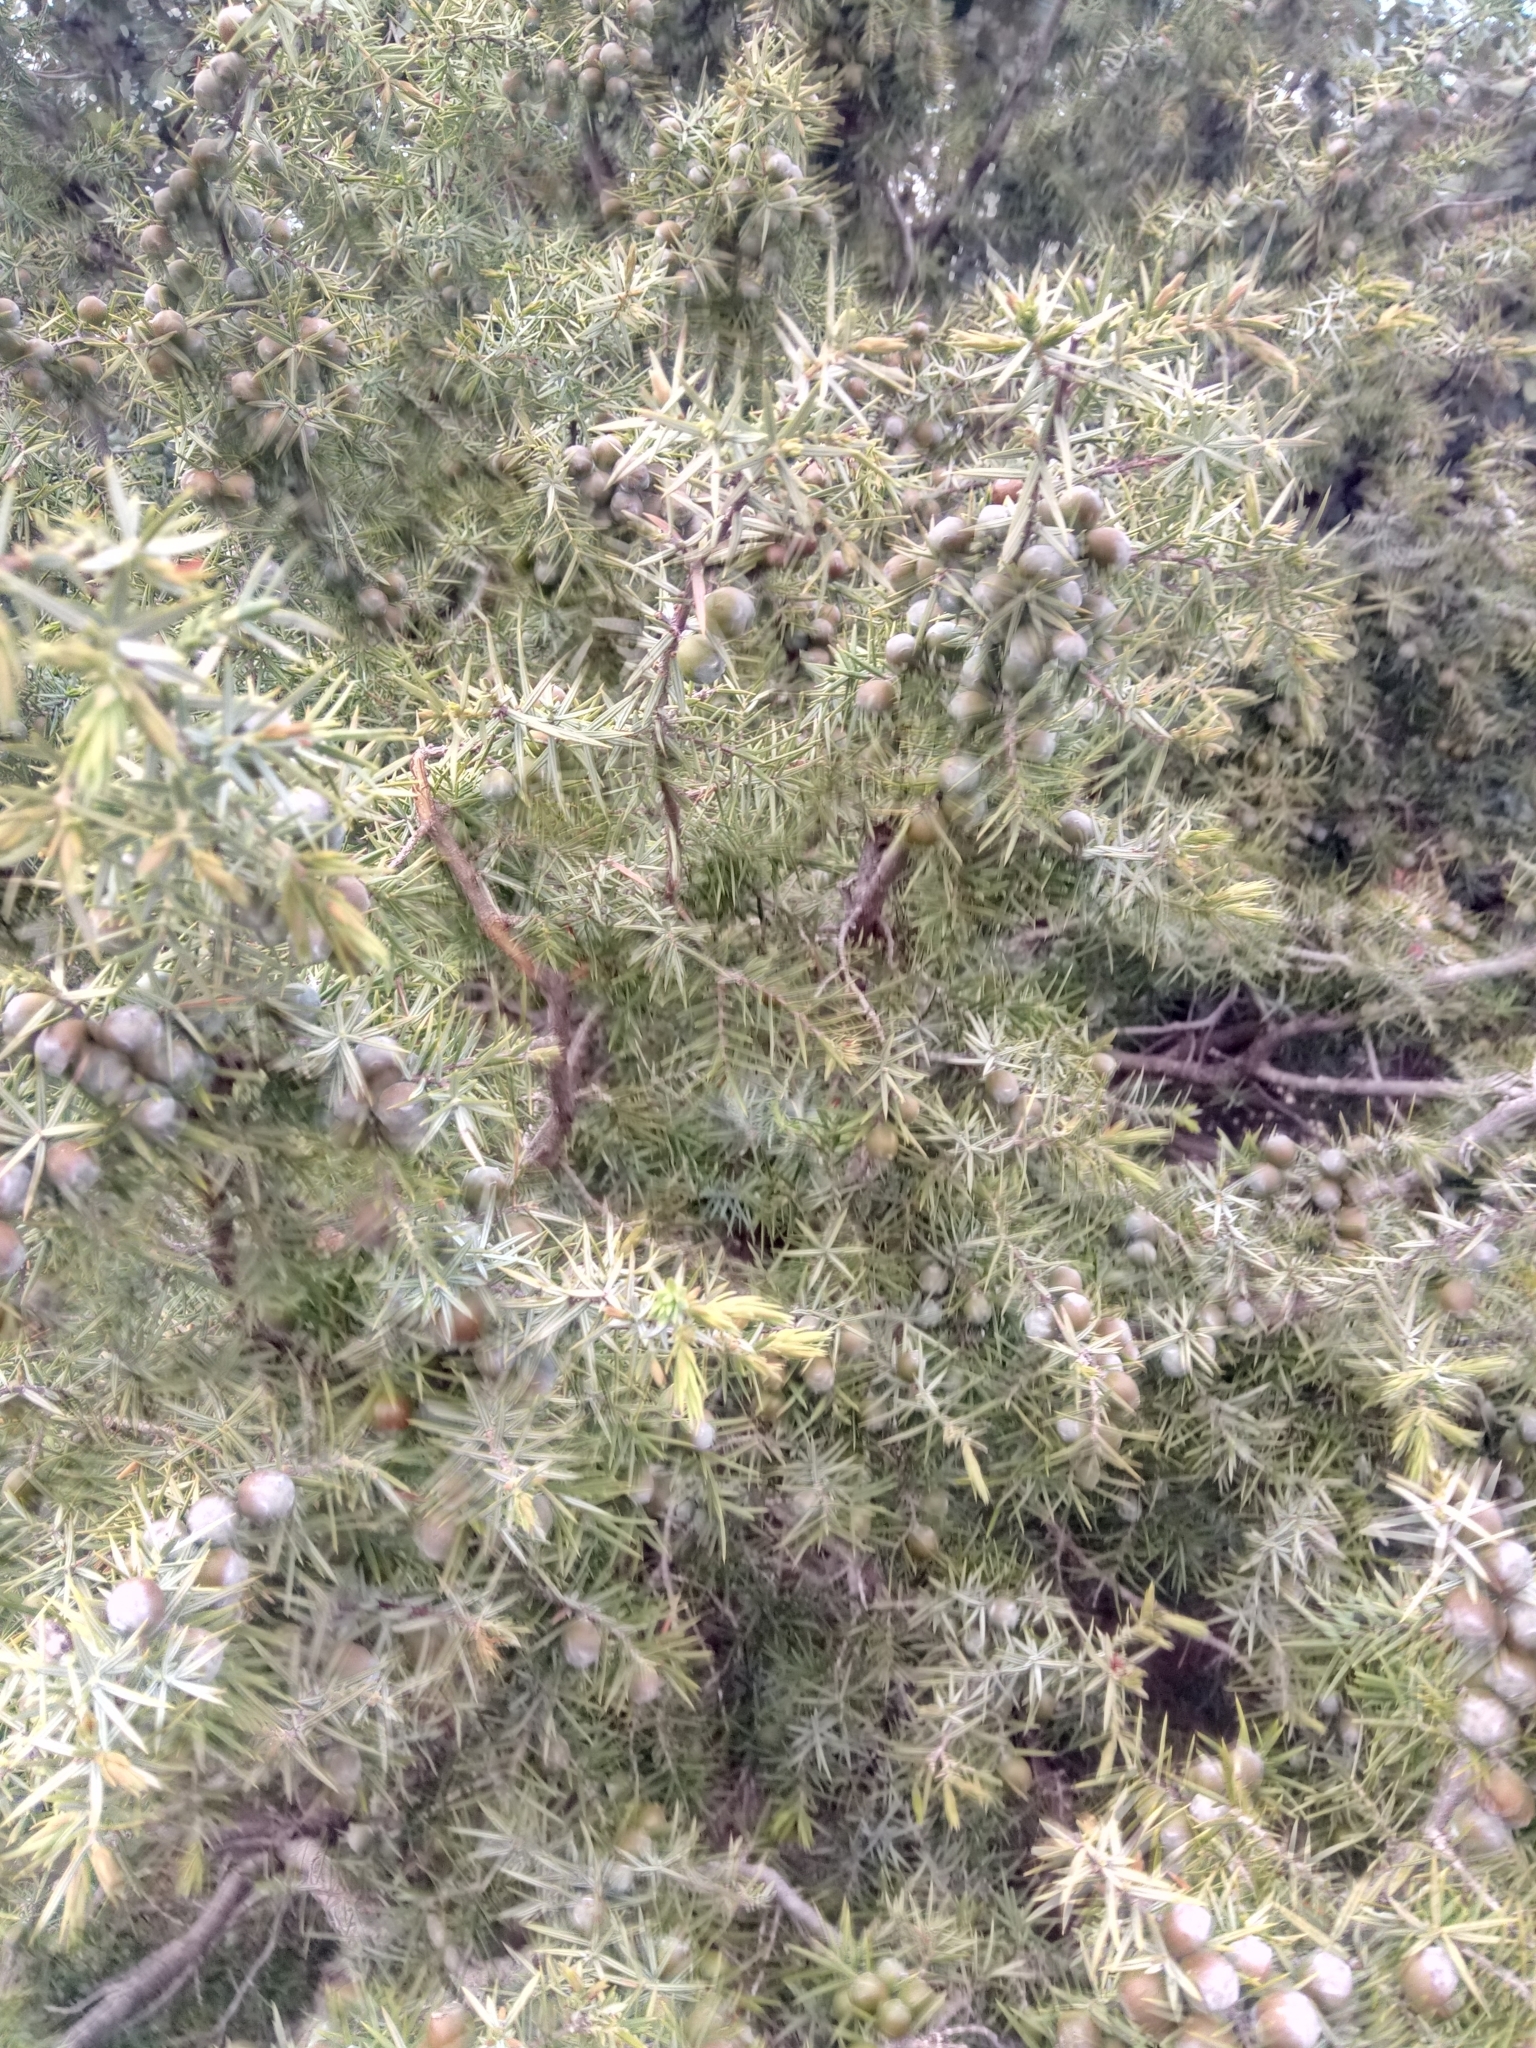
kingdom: Plantae
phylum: Tracheophyta
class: Pinopsida
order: Pinales
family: Cupressaceae
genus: Juniperus
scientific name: Juniperus oxycedrus
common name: Prickly juniper
